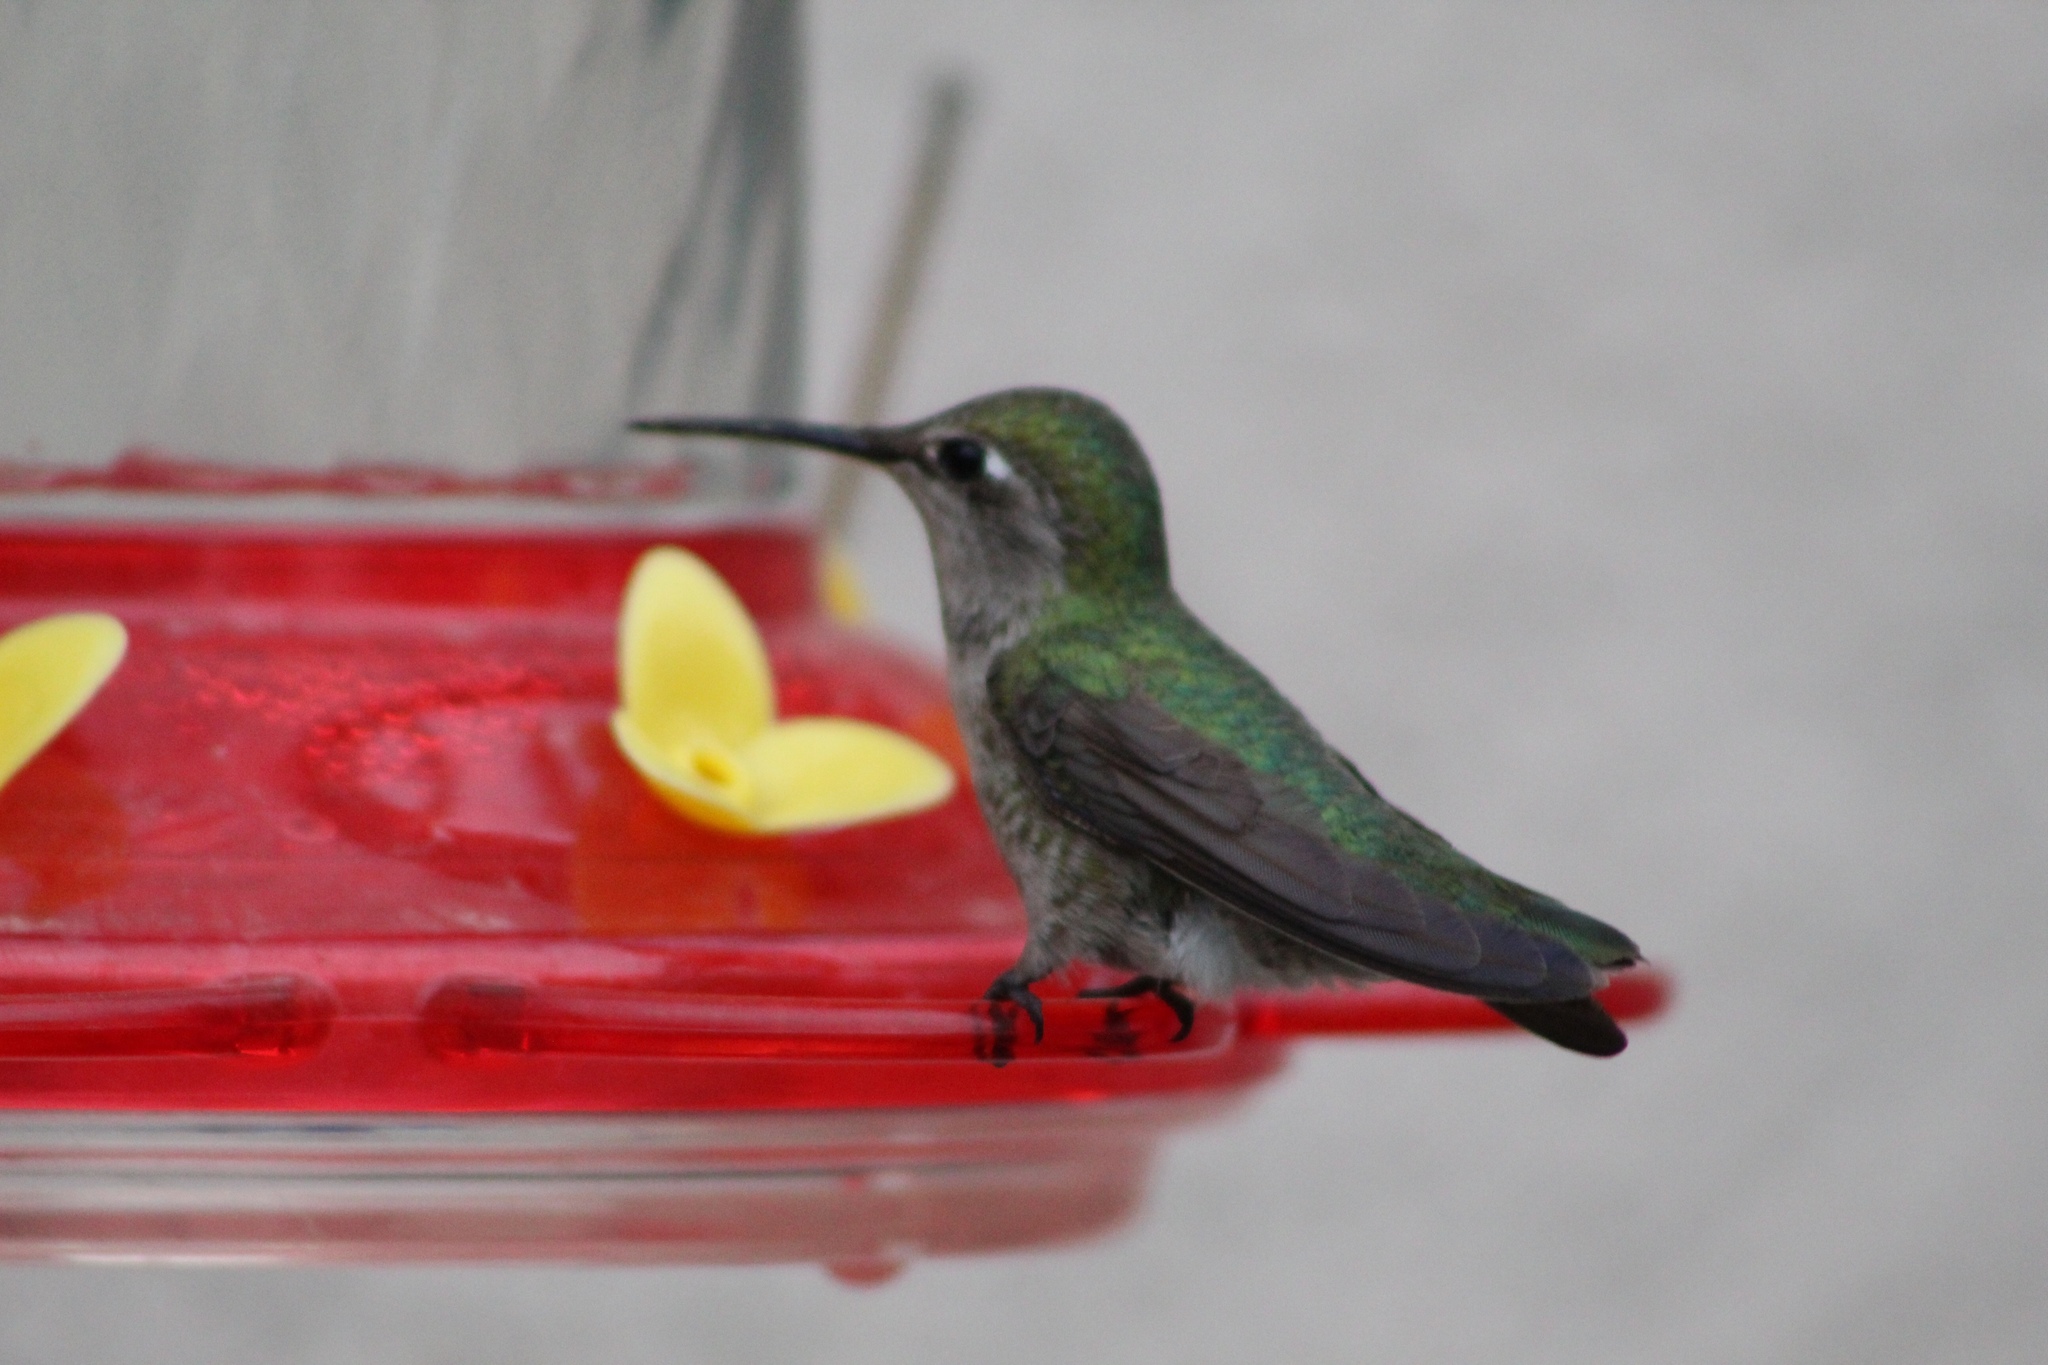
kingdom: Animalia
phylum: Chordata
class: Aves
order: Apodiformes
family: Trochilidae
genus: Calypte
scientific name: Calypte anna
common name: Anna's hummingbird
